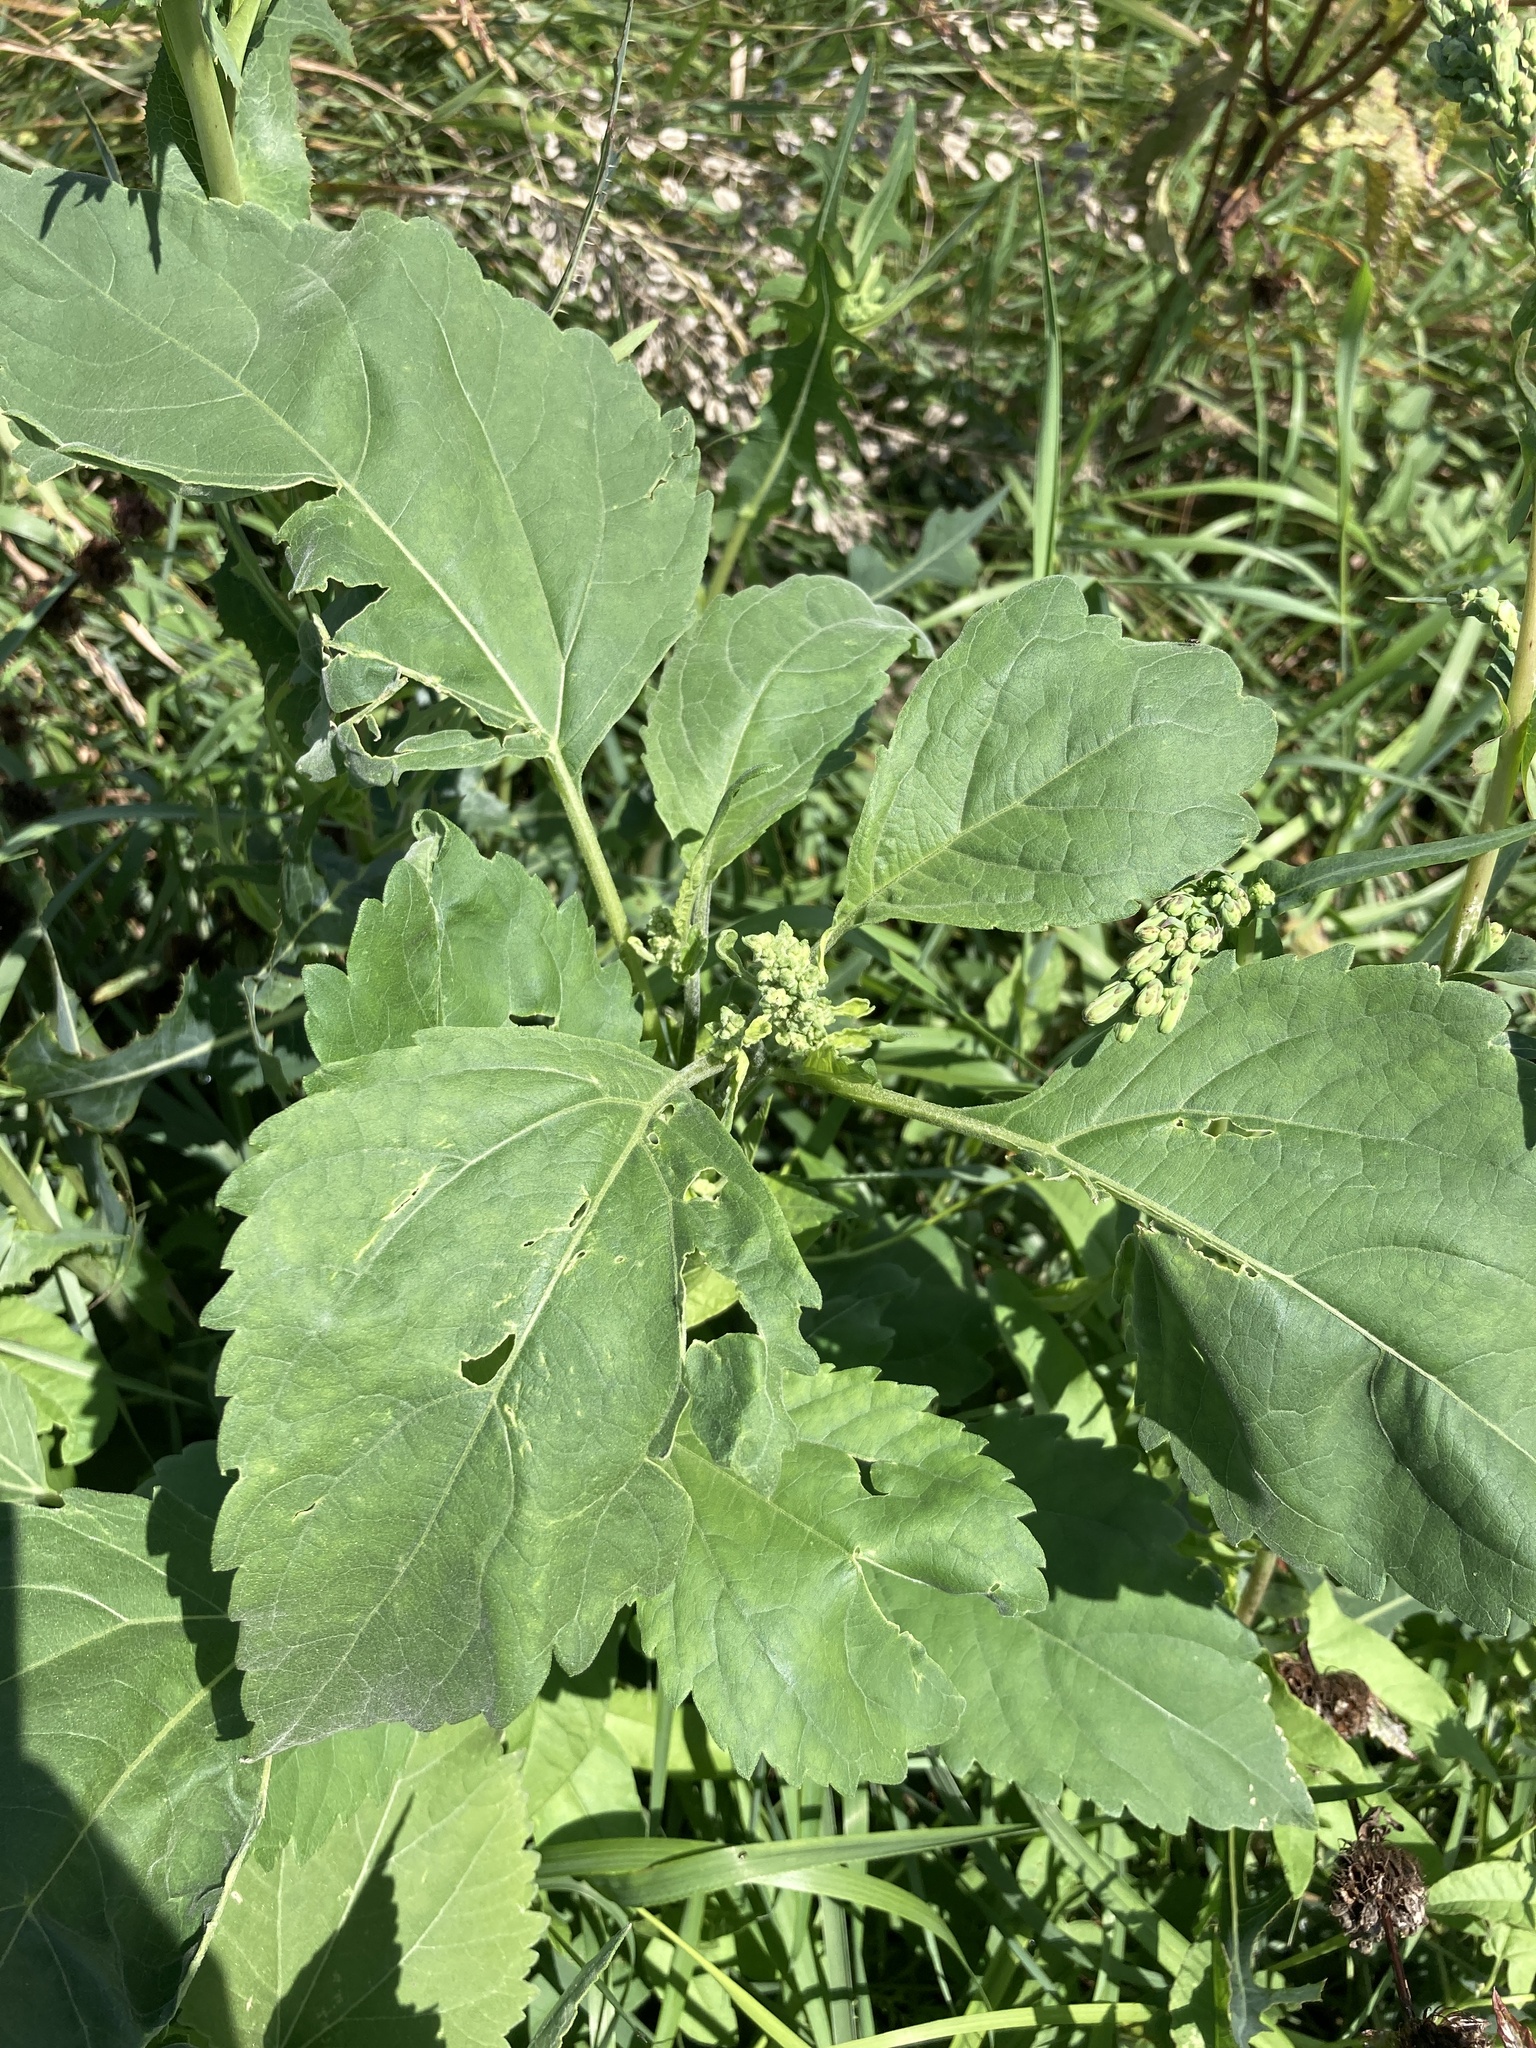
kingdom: Plantae
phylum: Tracheophyta
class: Magnoliopsida
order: Asterales
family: Asteraceae
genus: Cyclachaena
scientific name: Cyclachaena xanthiifolia
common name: Giant sumpweed
